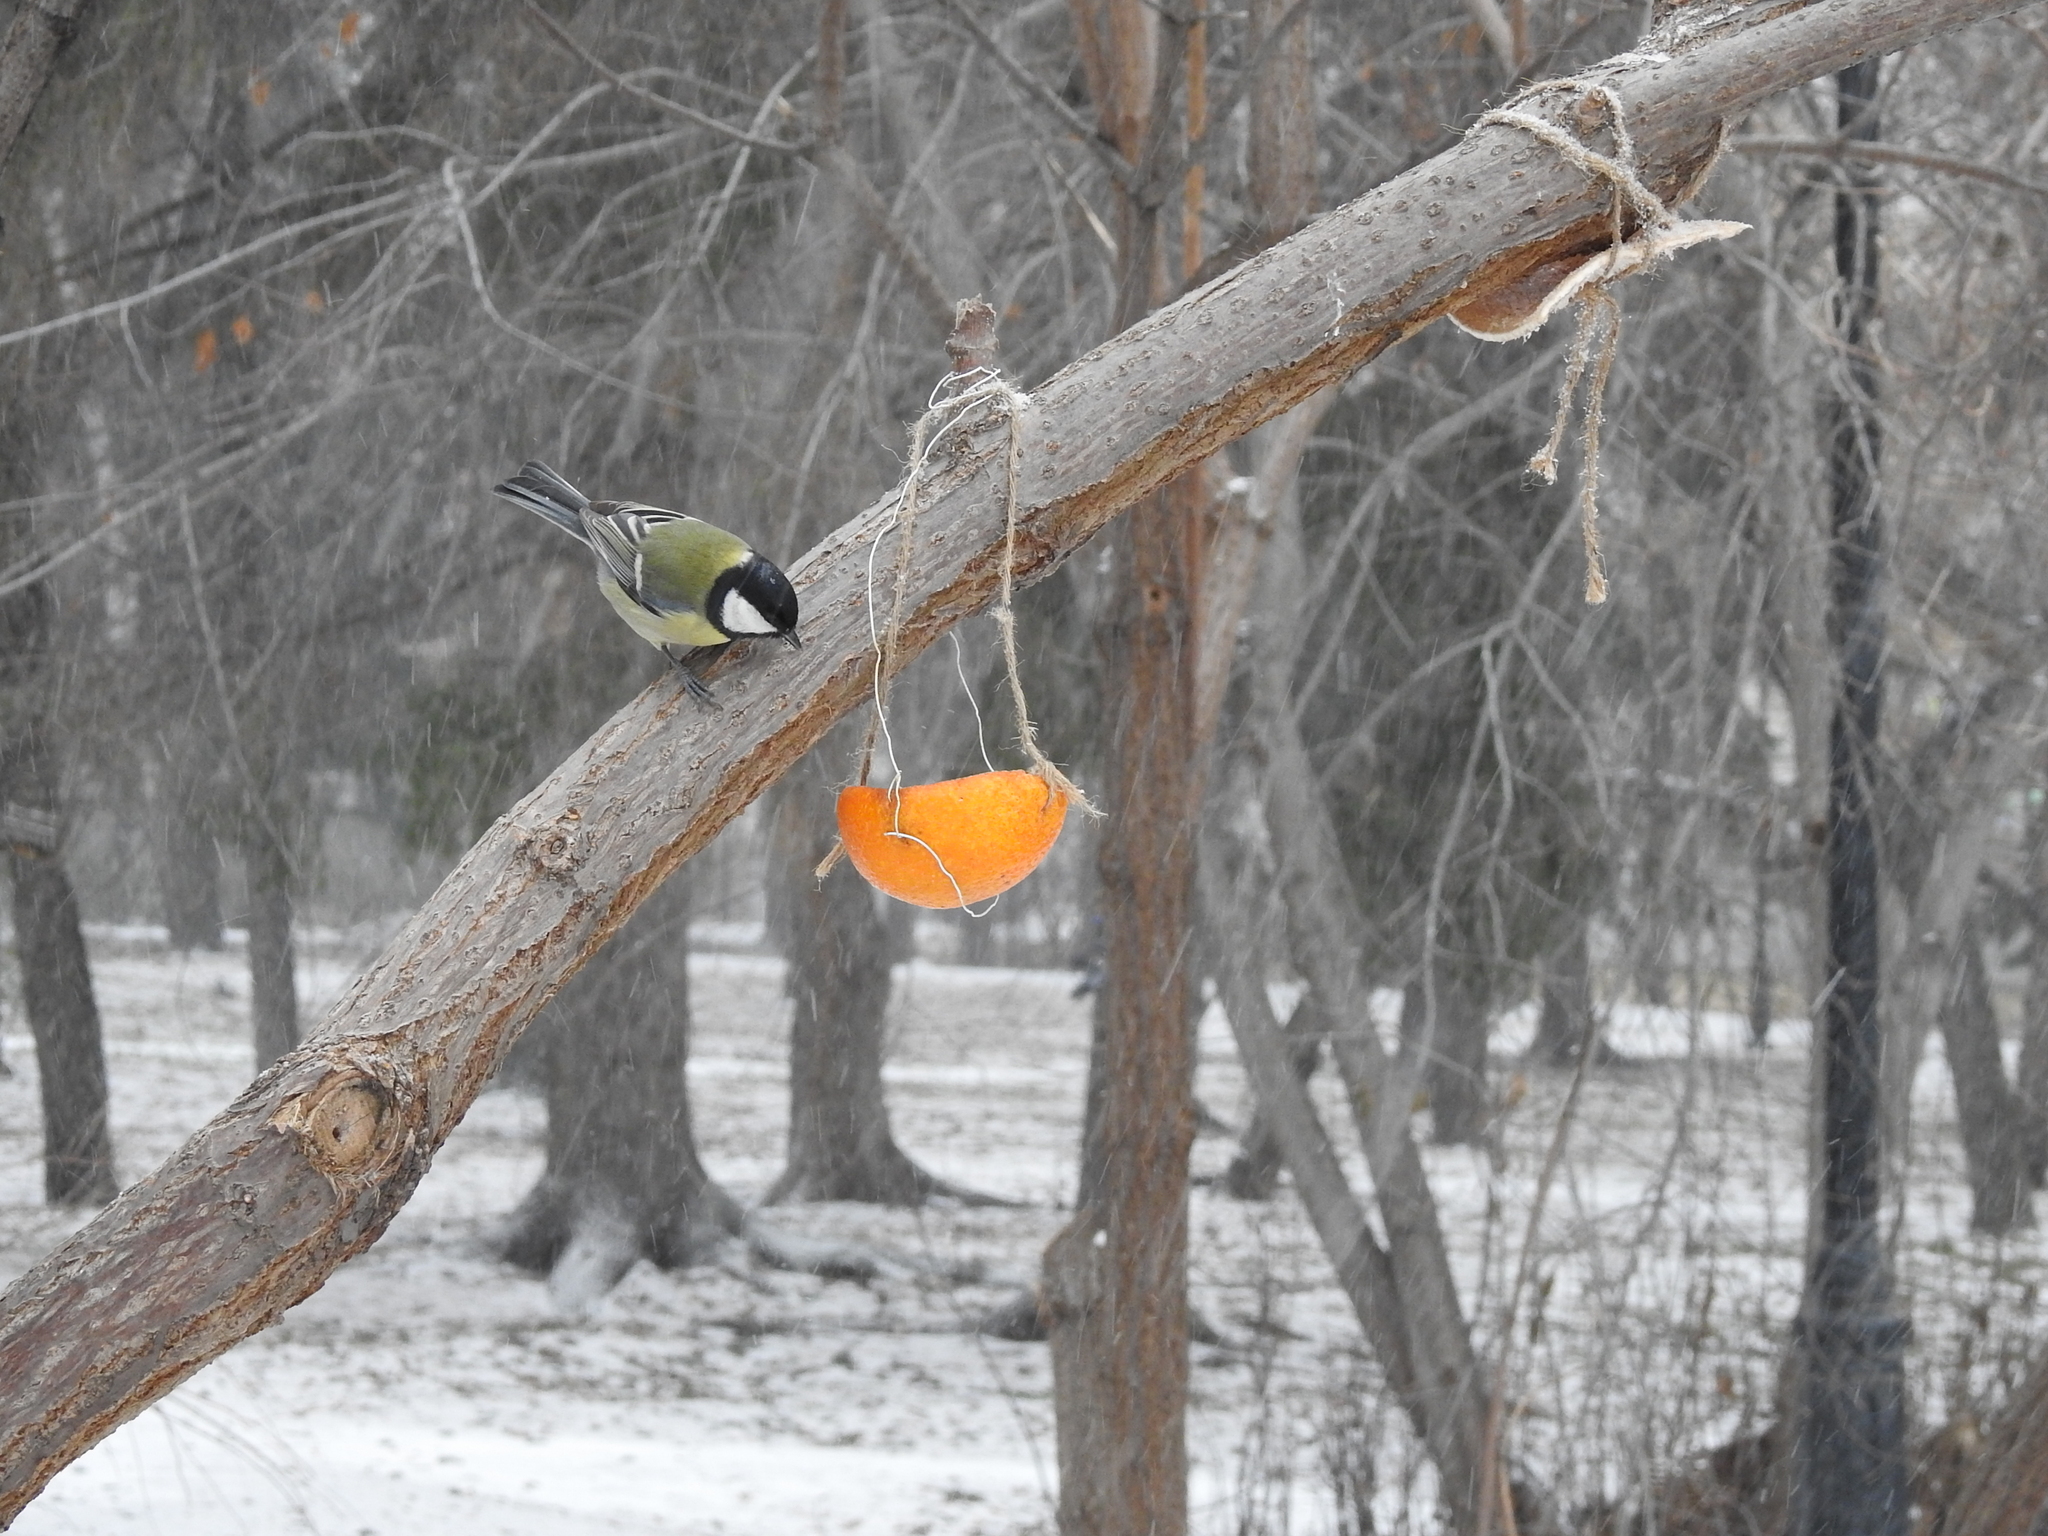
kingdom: Animalia
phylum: Chordata
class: Aves
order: Passeriformes
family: Paridae
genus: Parus
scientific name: Parus major
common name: Great tit
